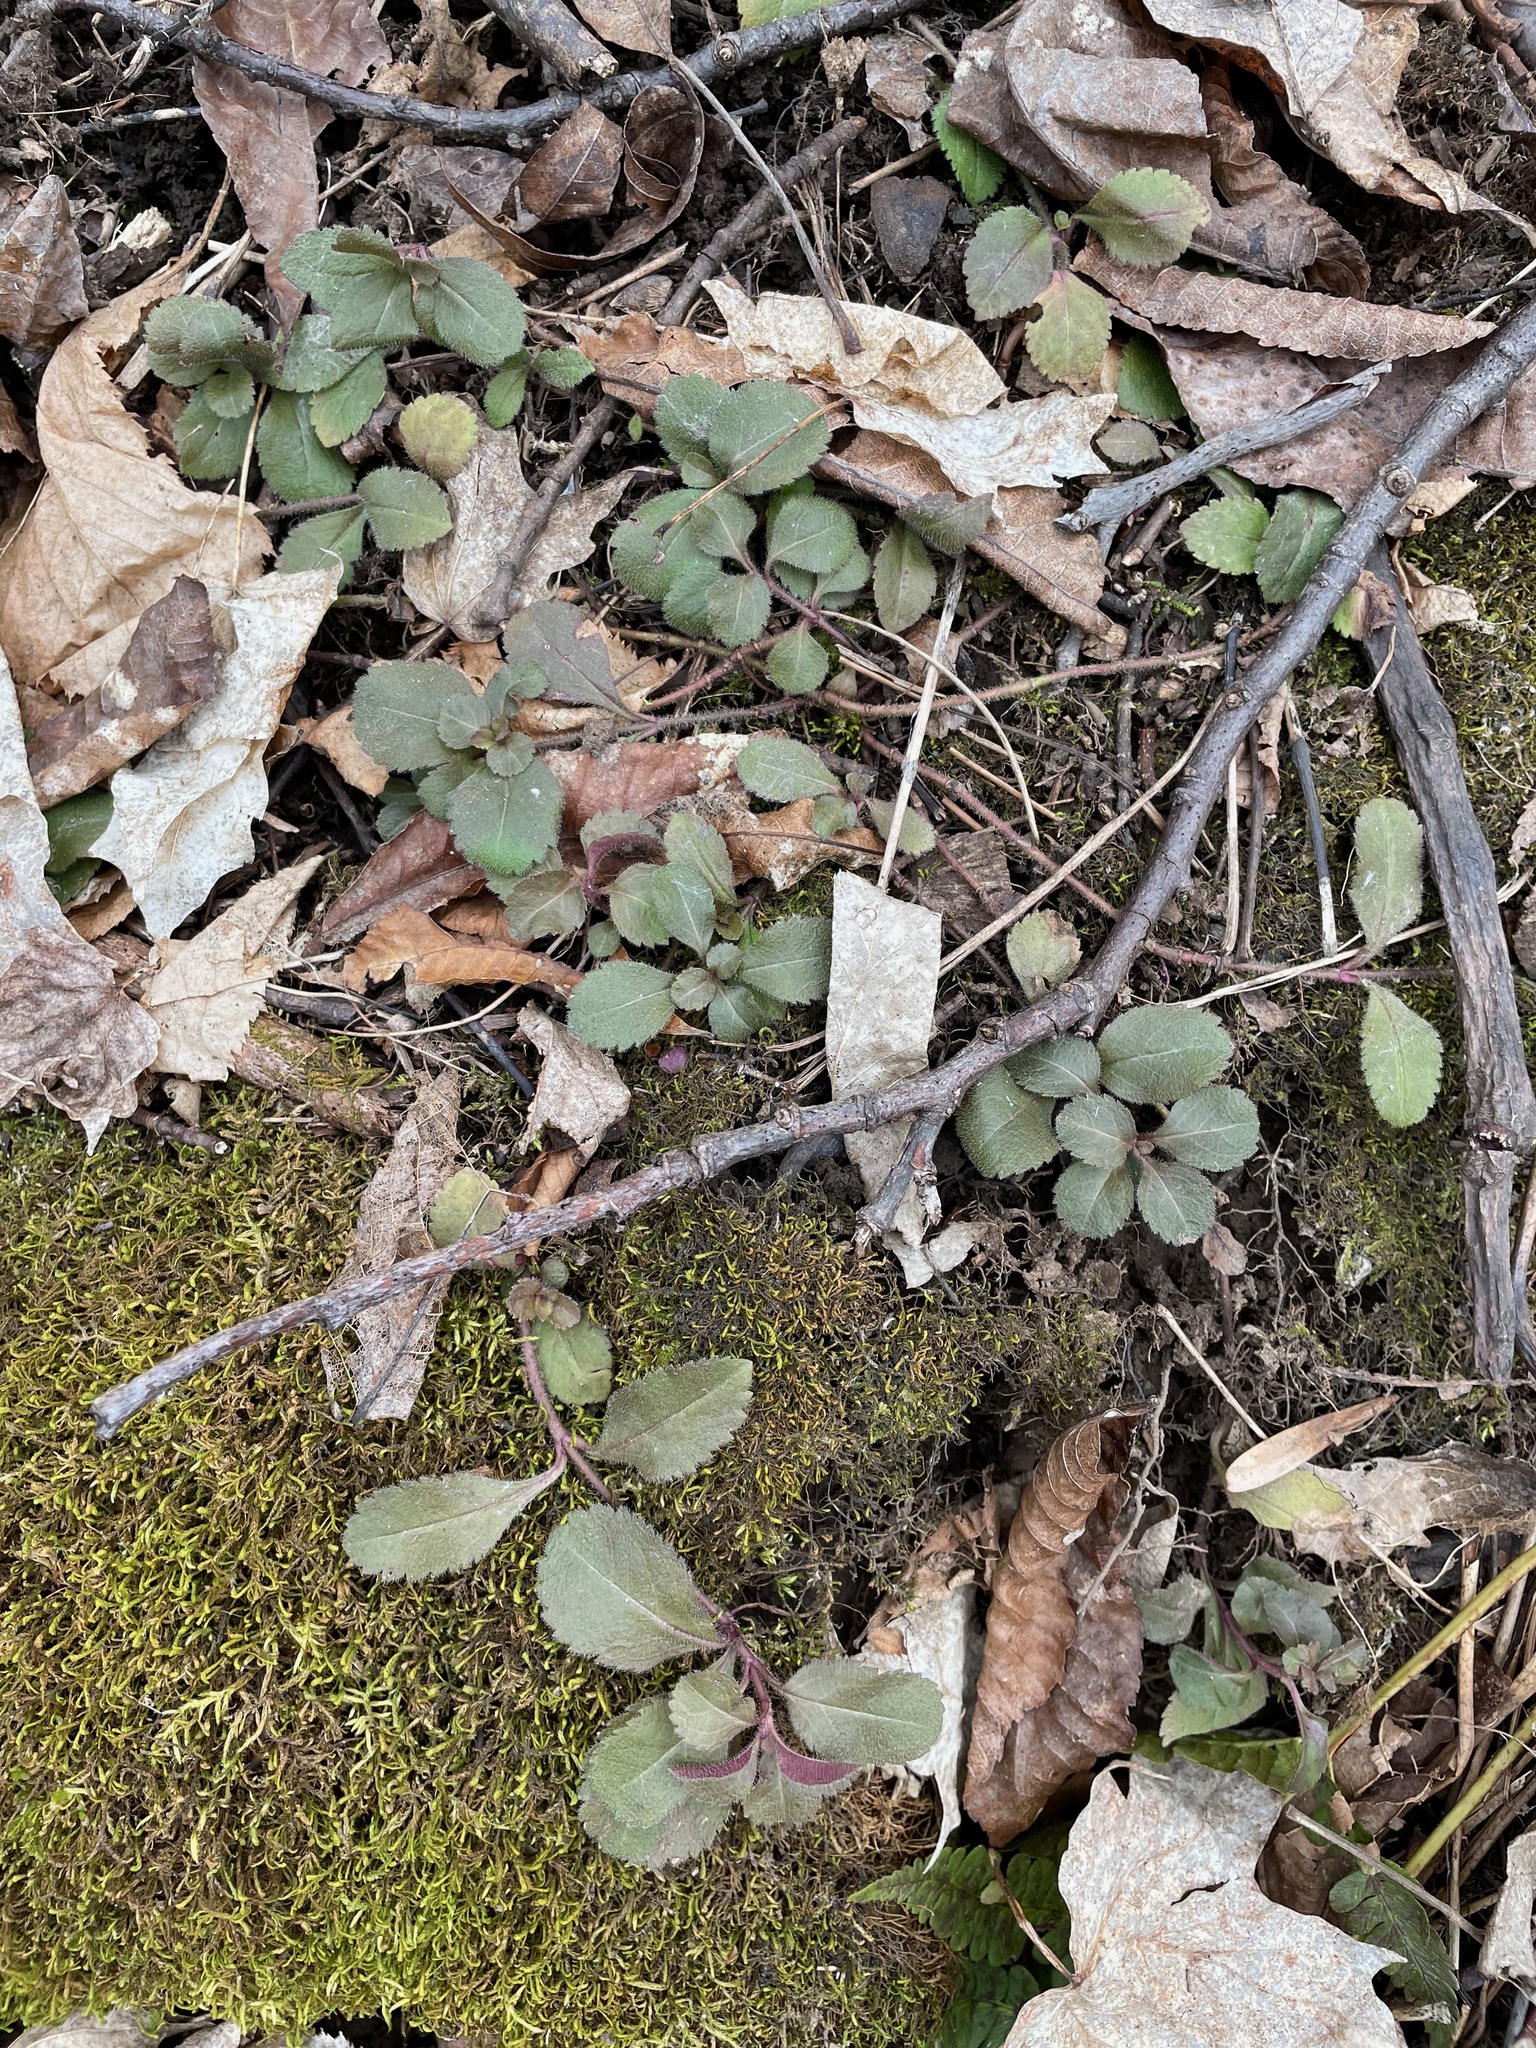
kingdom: Plantae
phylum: Tracheophyta
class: Magnoliopsida
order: Lamiales
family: Plantaginaceae
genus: Veronica
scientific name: Veronica officinalis
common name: Common speedwell
